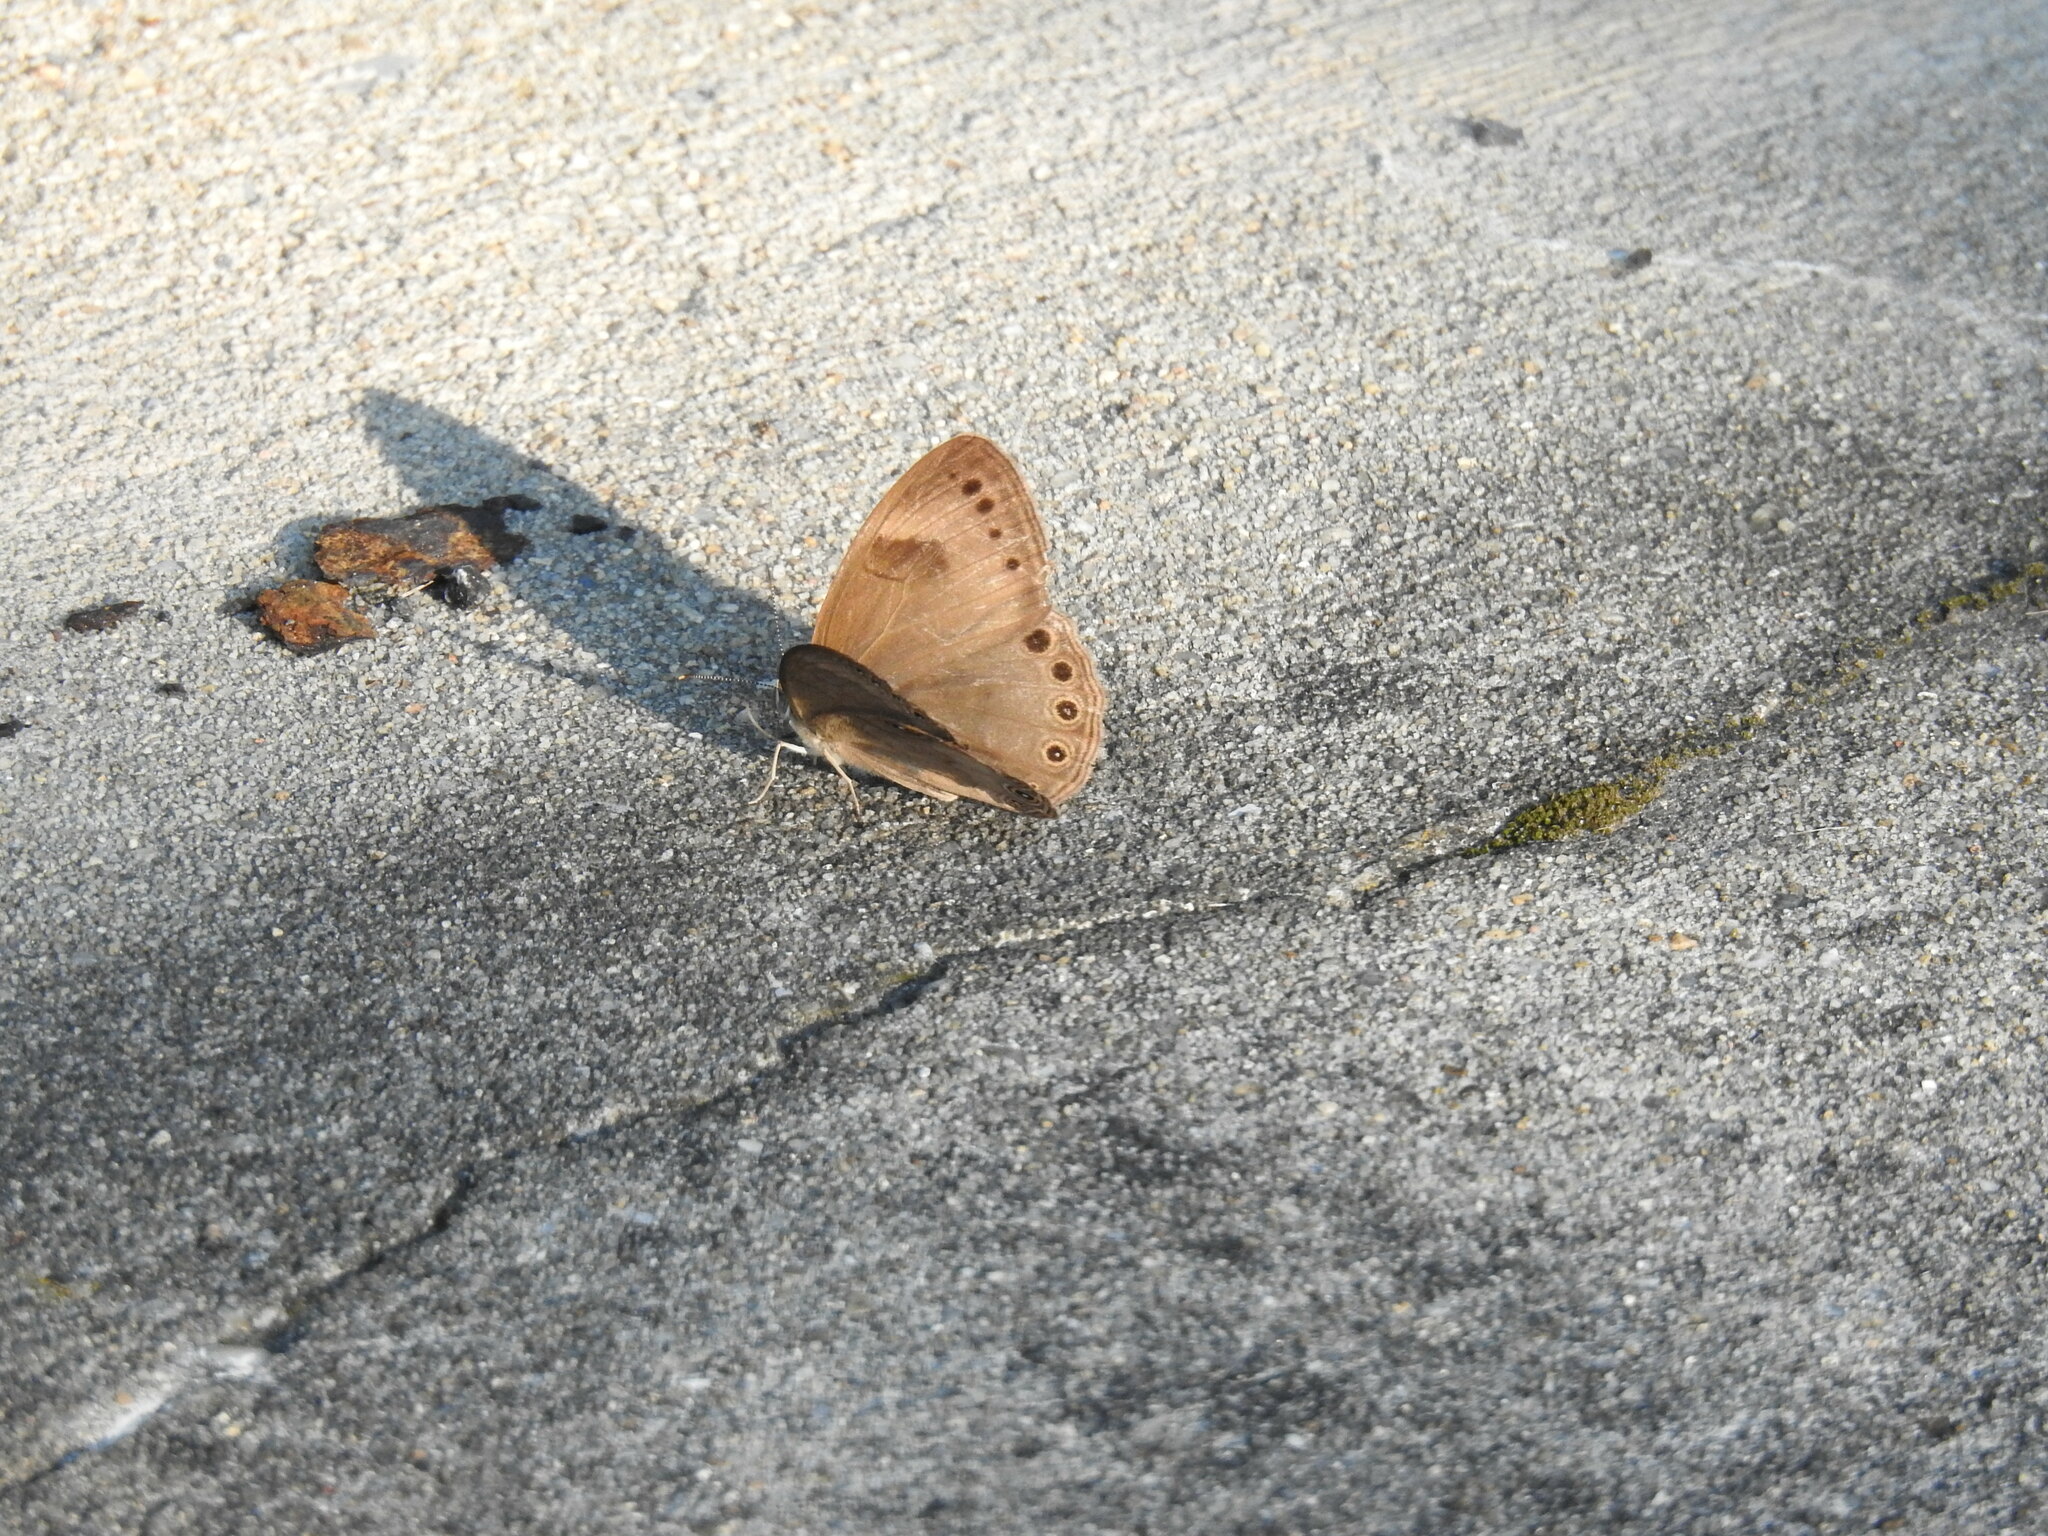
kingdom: Animalia
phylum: Arthropoda
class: Insecta
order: Lepidoptera
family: Nymphalidae
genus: Lethe
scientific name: Lethe eurydice
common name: Eyed brown
